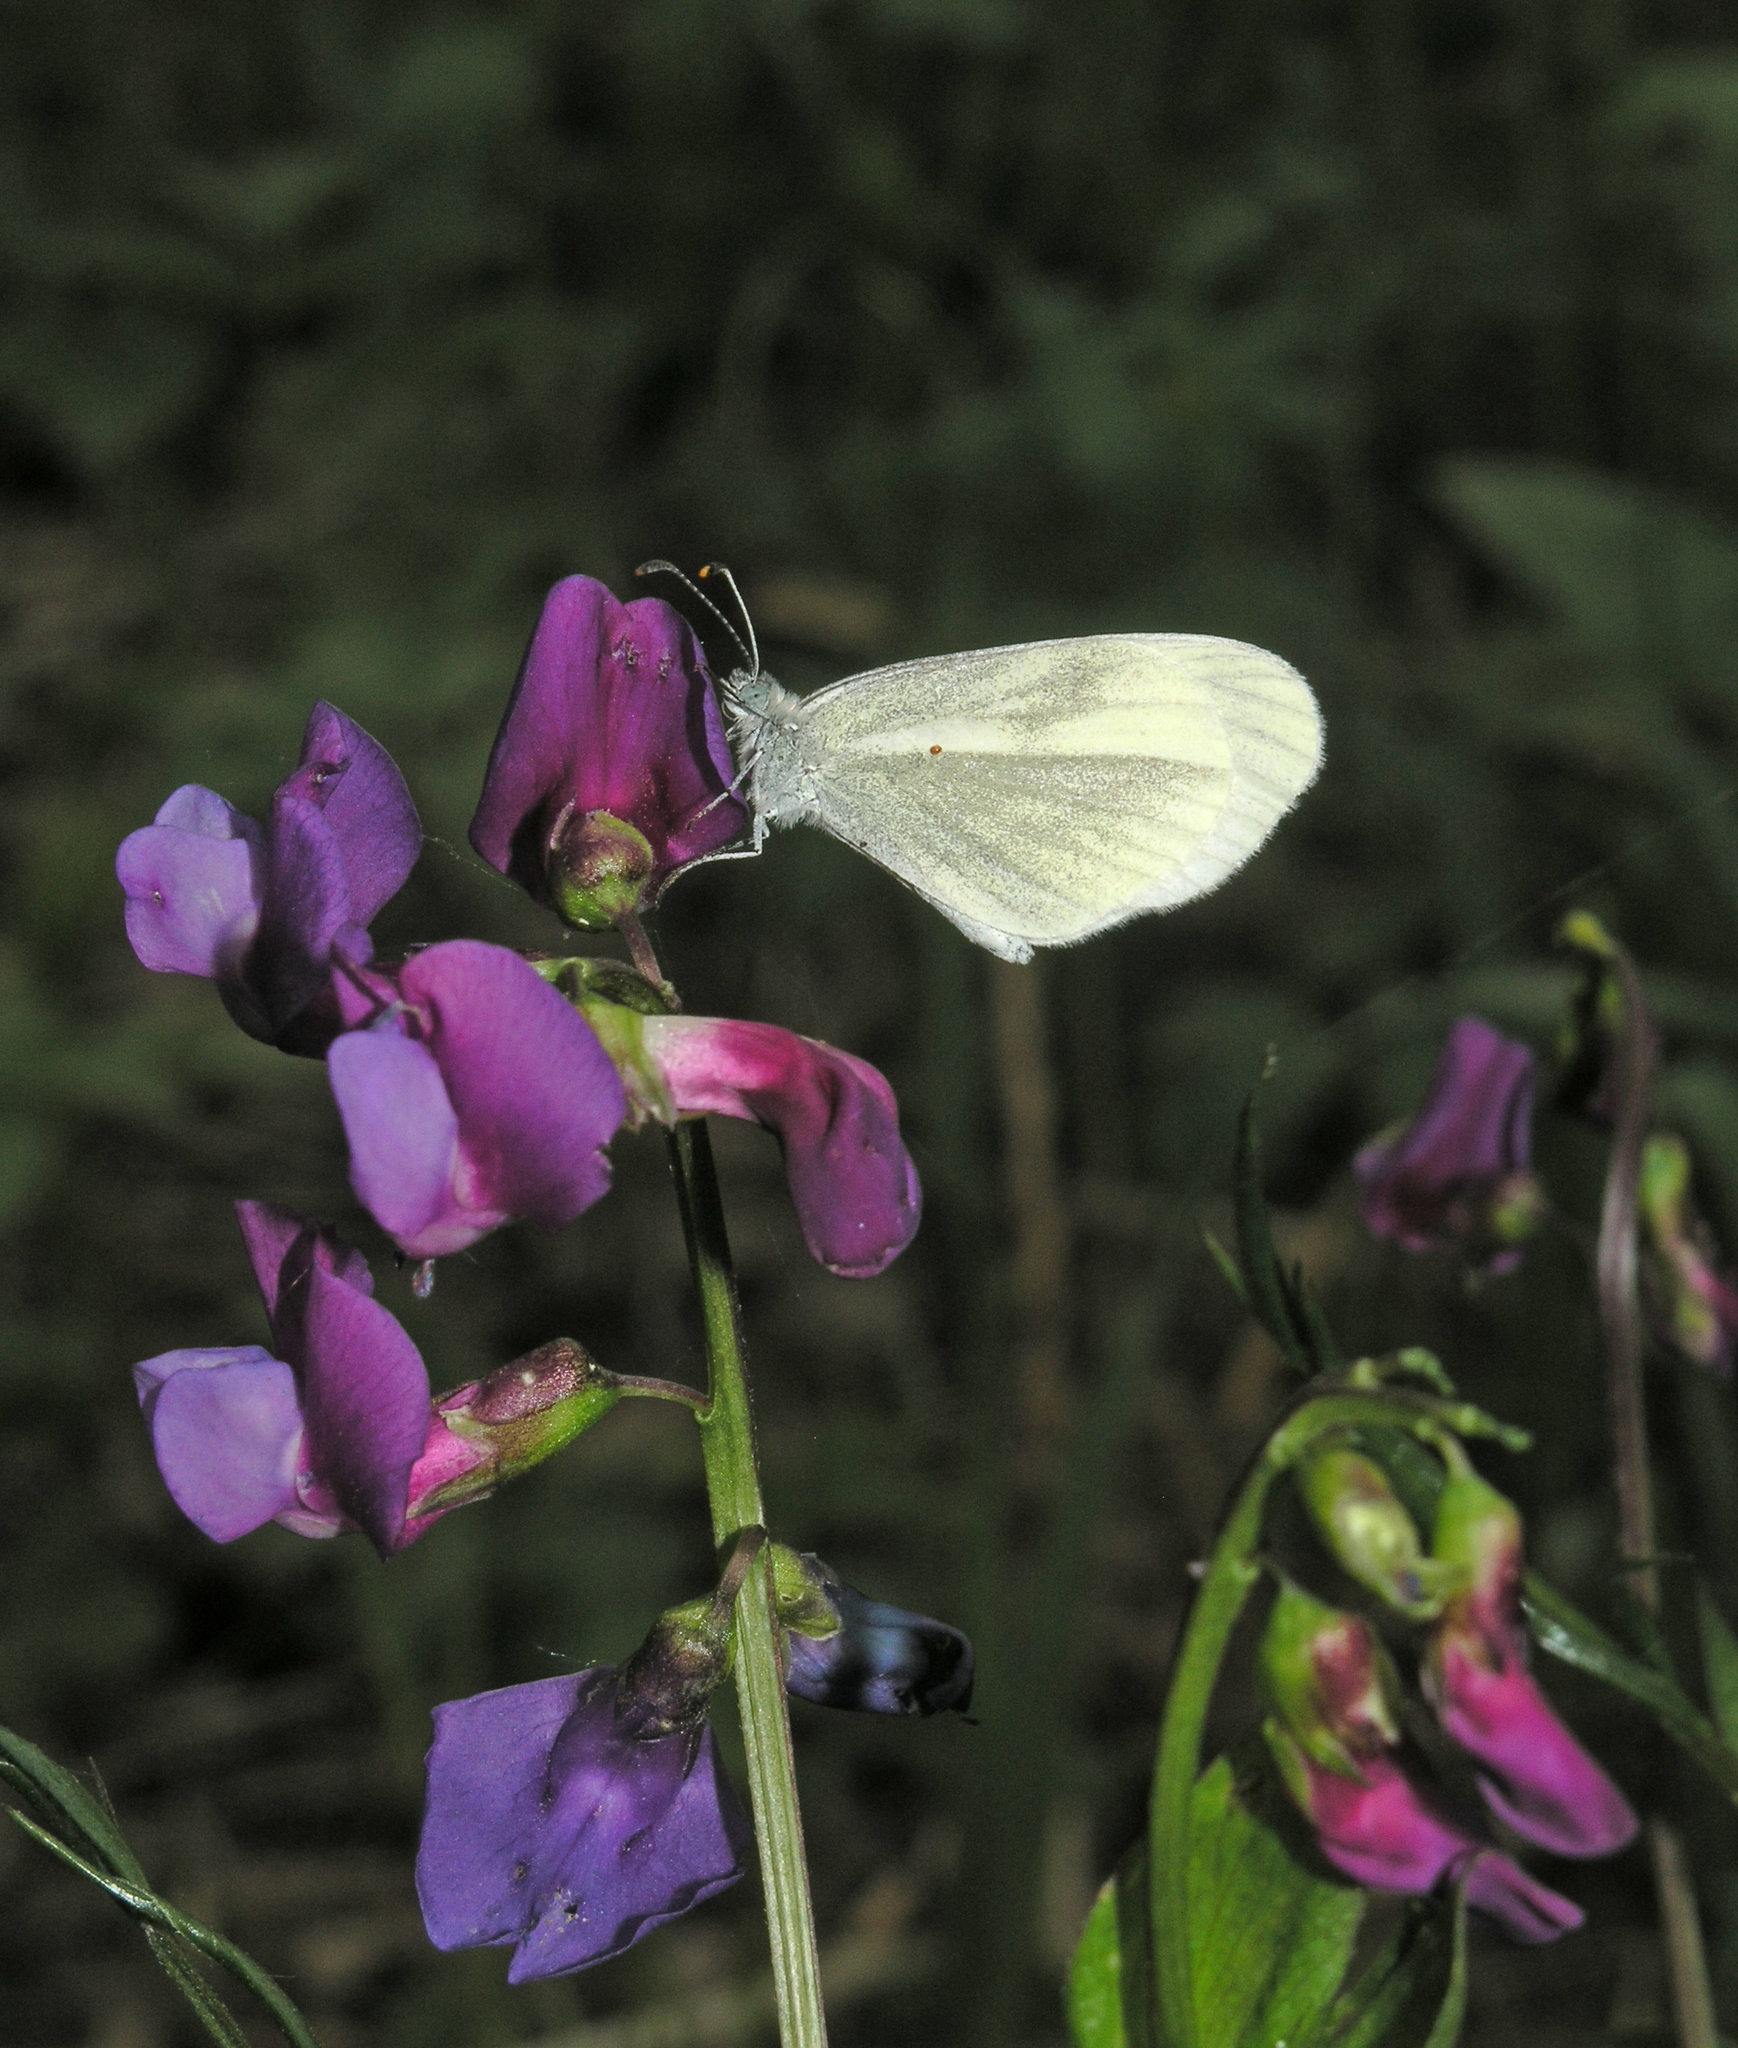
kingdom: Plantae
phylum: Tracheophyta
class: Magnoliopsida
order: Fabales
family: Fabaceae
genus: Lathyrus
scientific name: Lathyrus vernus
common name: Spring pea
